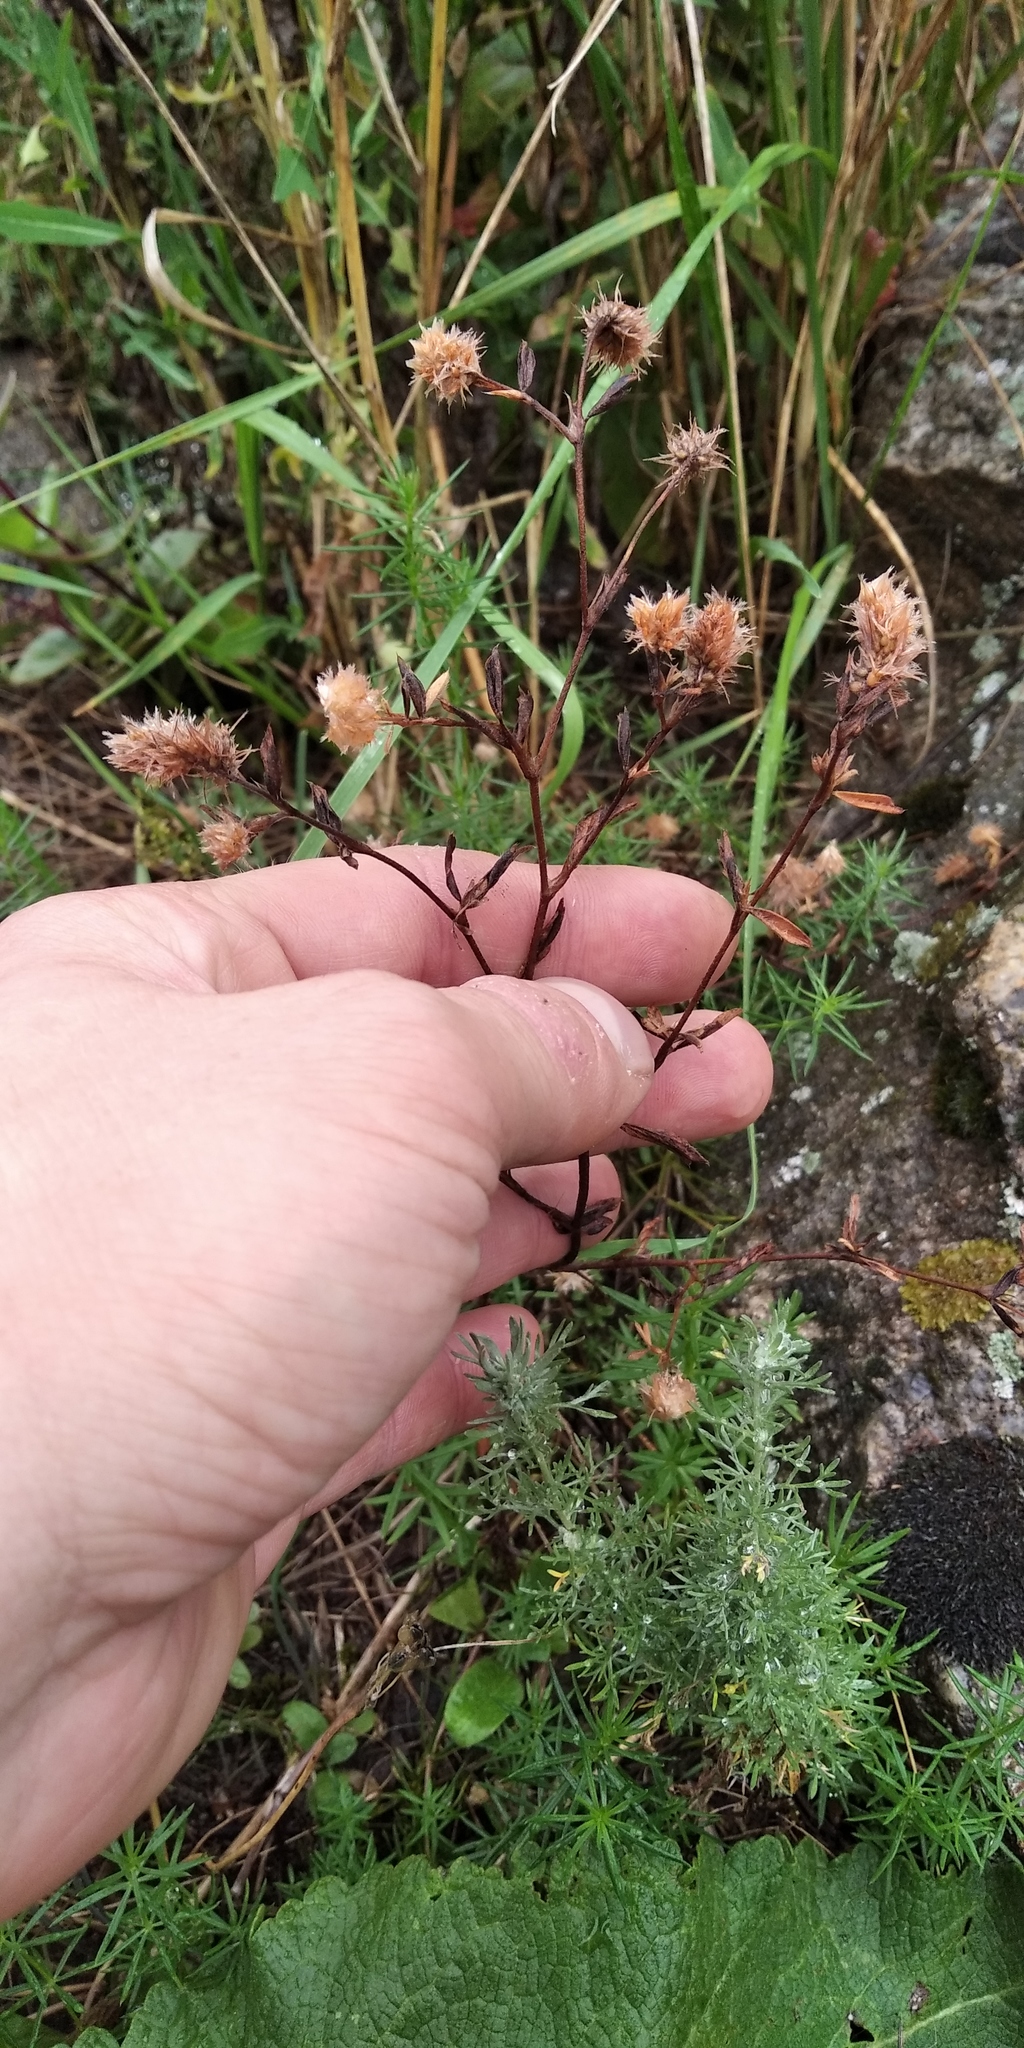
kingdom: Plantae
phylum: Tracheophyta
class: Magnoliopsida
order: Fabales
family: Fabaceae
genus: Trifolium
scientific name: Trifolium arvense
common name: Hare's-foot clover
